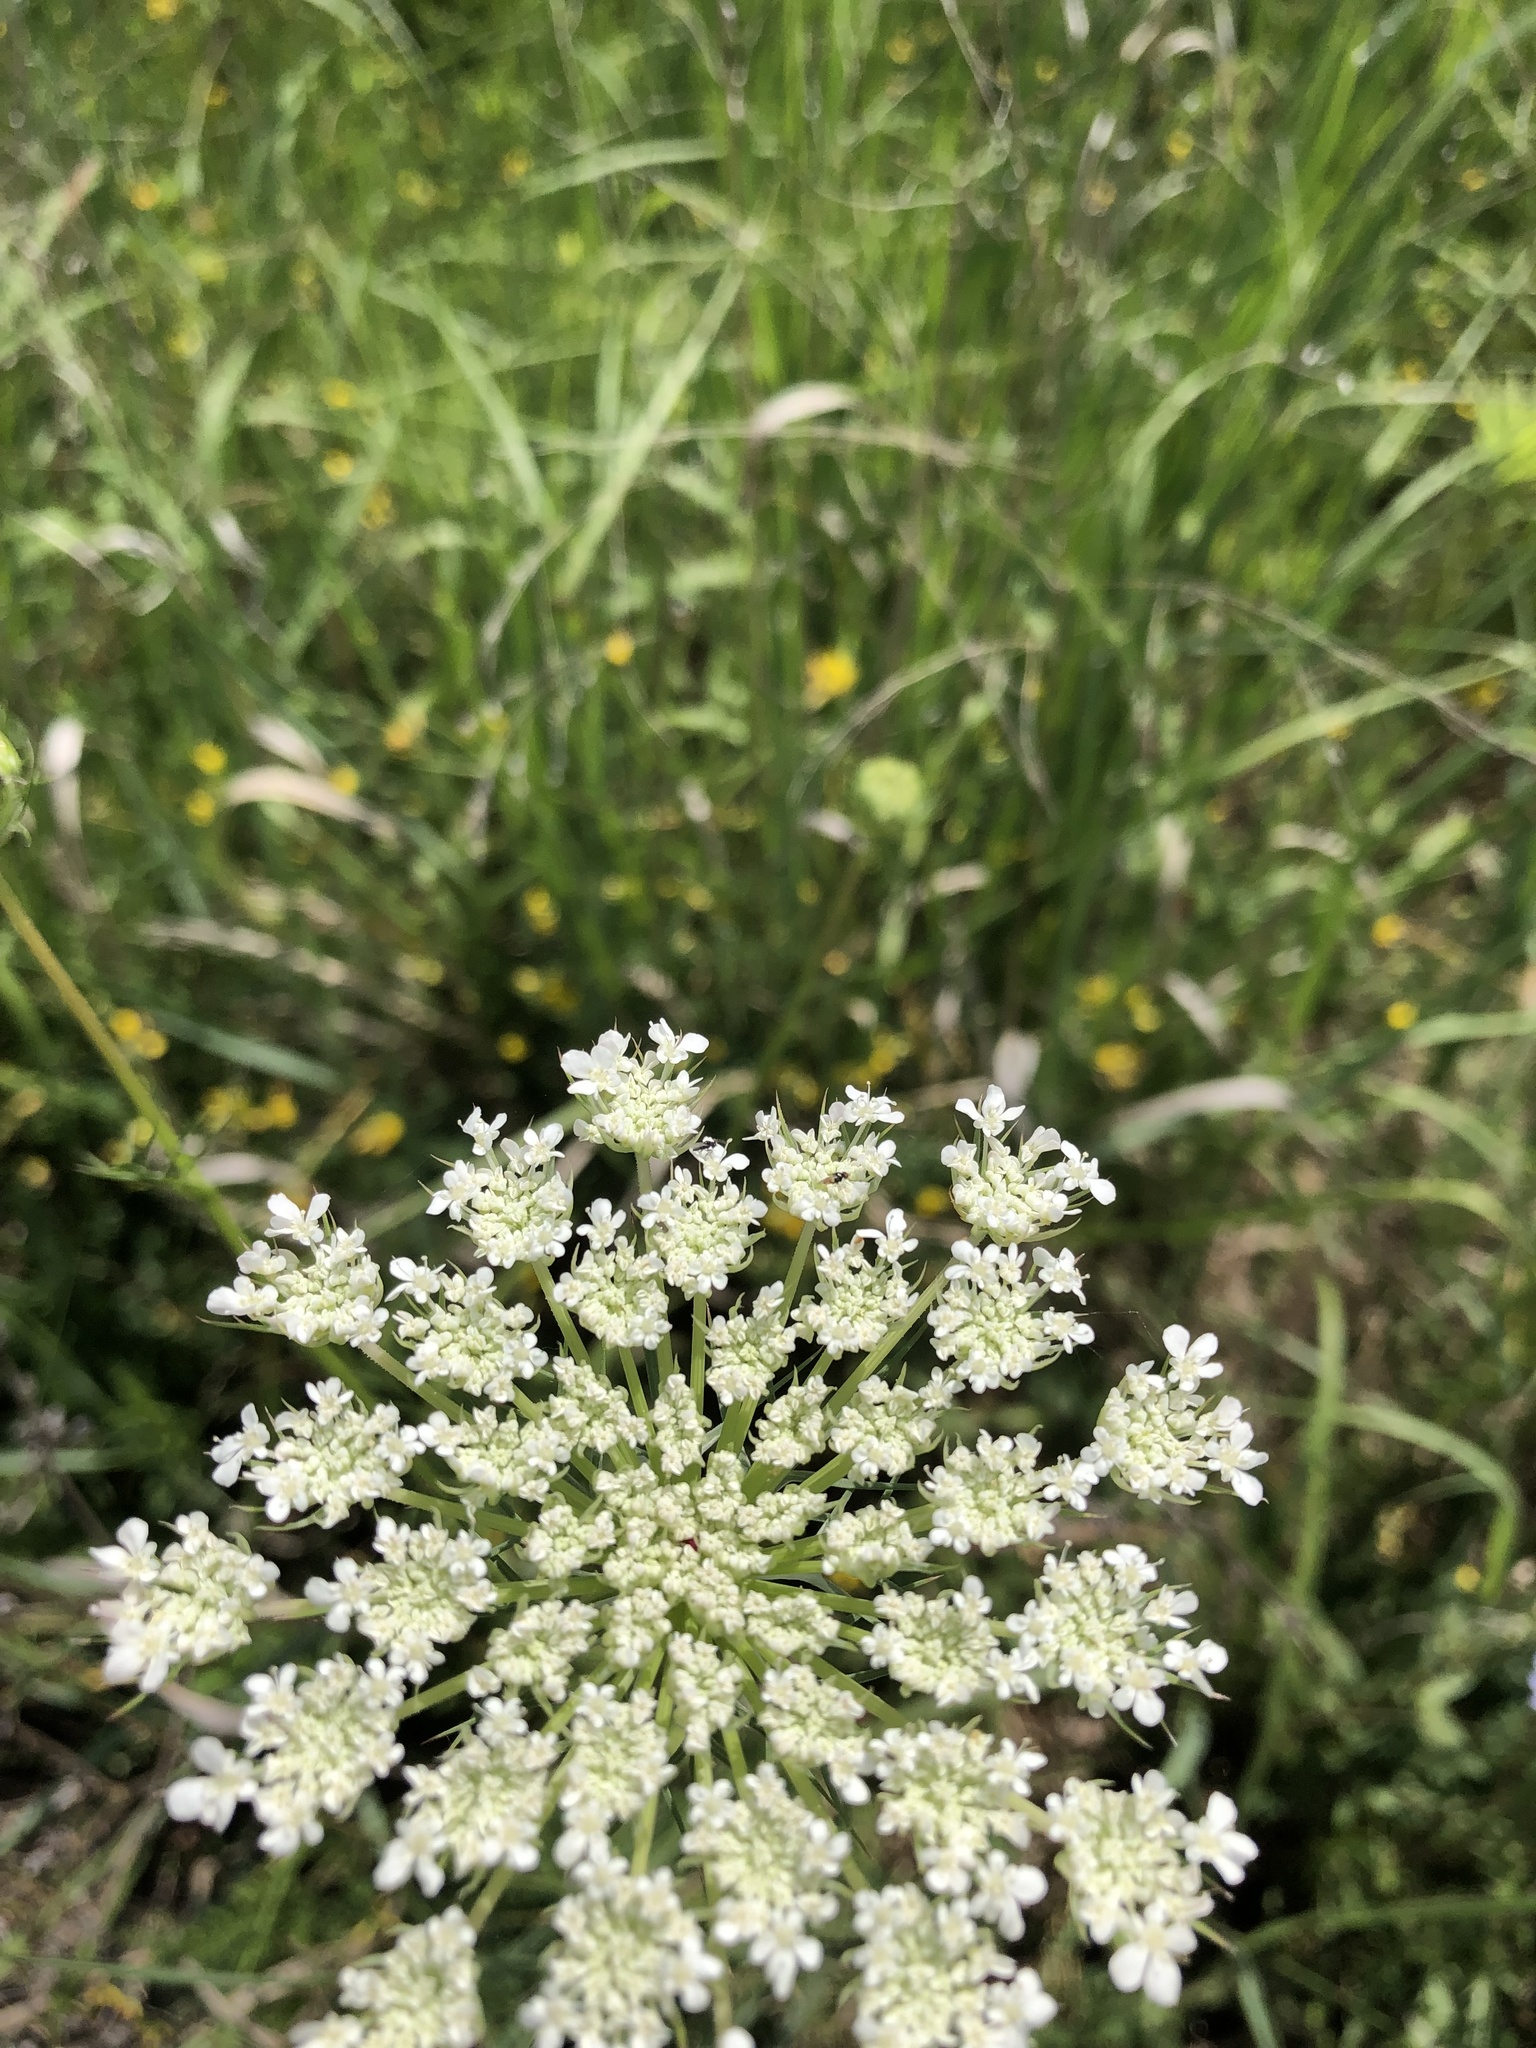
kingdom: Plantae
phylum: Tracheophyta
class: Magnoliopsida
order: Apiales
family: Apiaceae
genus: Daucus
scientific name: Daucus carota
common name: Wild carrot
